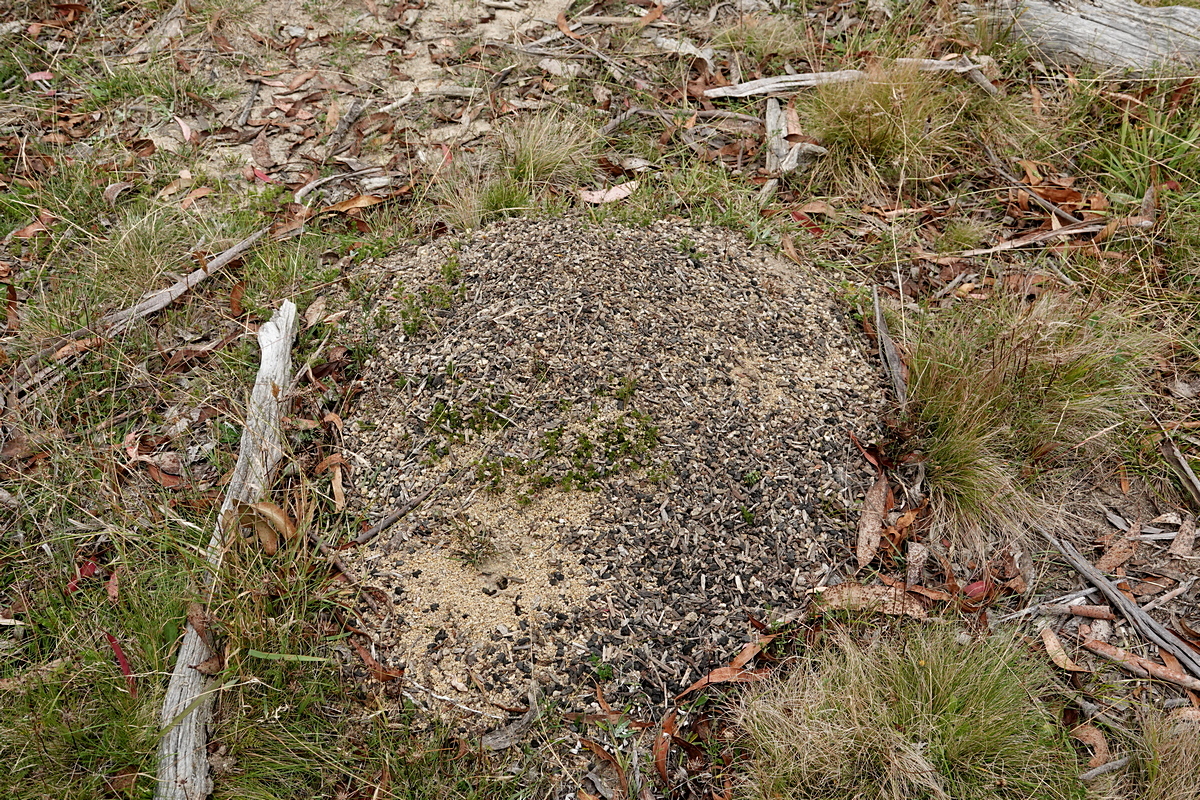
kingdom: Animalia
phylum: Arthropoda
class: Insecta
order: Hymenoptera
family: Formicidae
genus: Myrmecia
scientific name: Myrmecia pilosula
